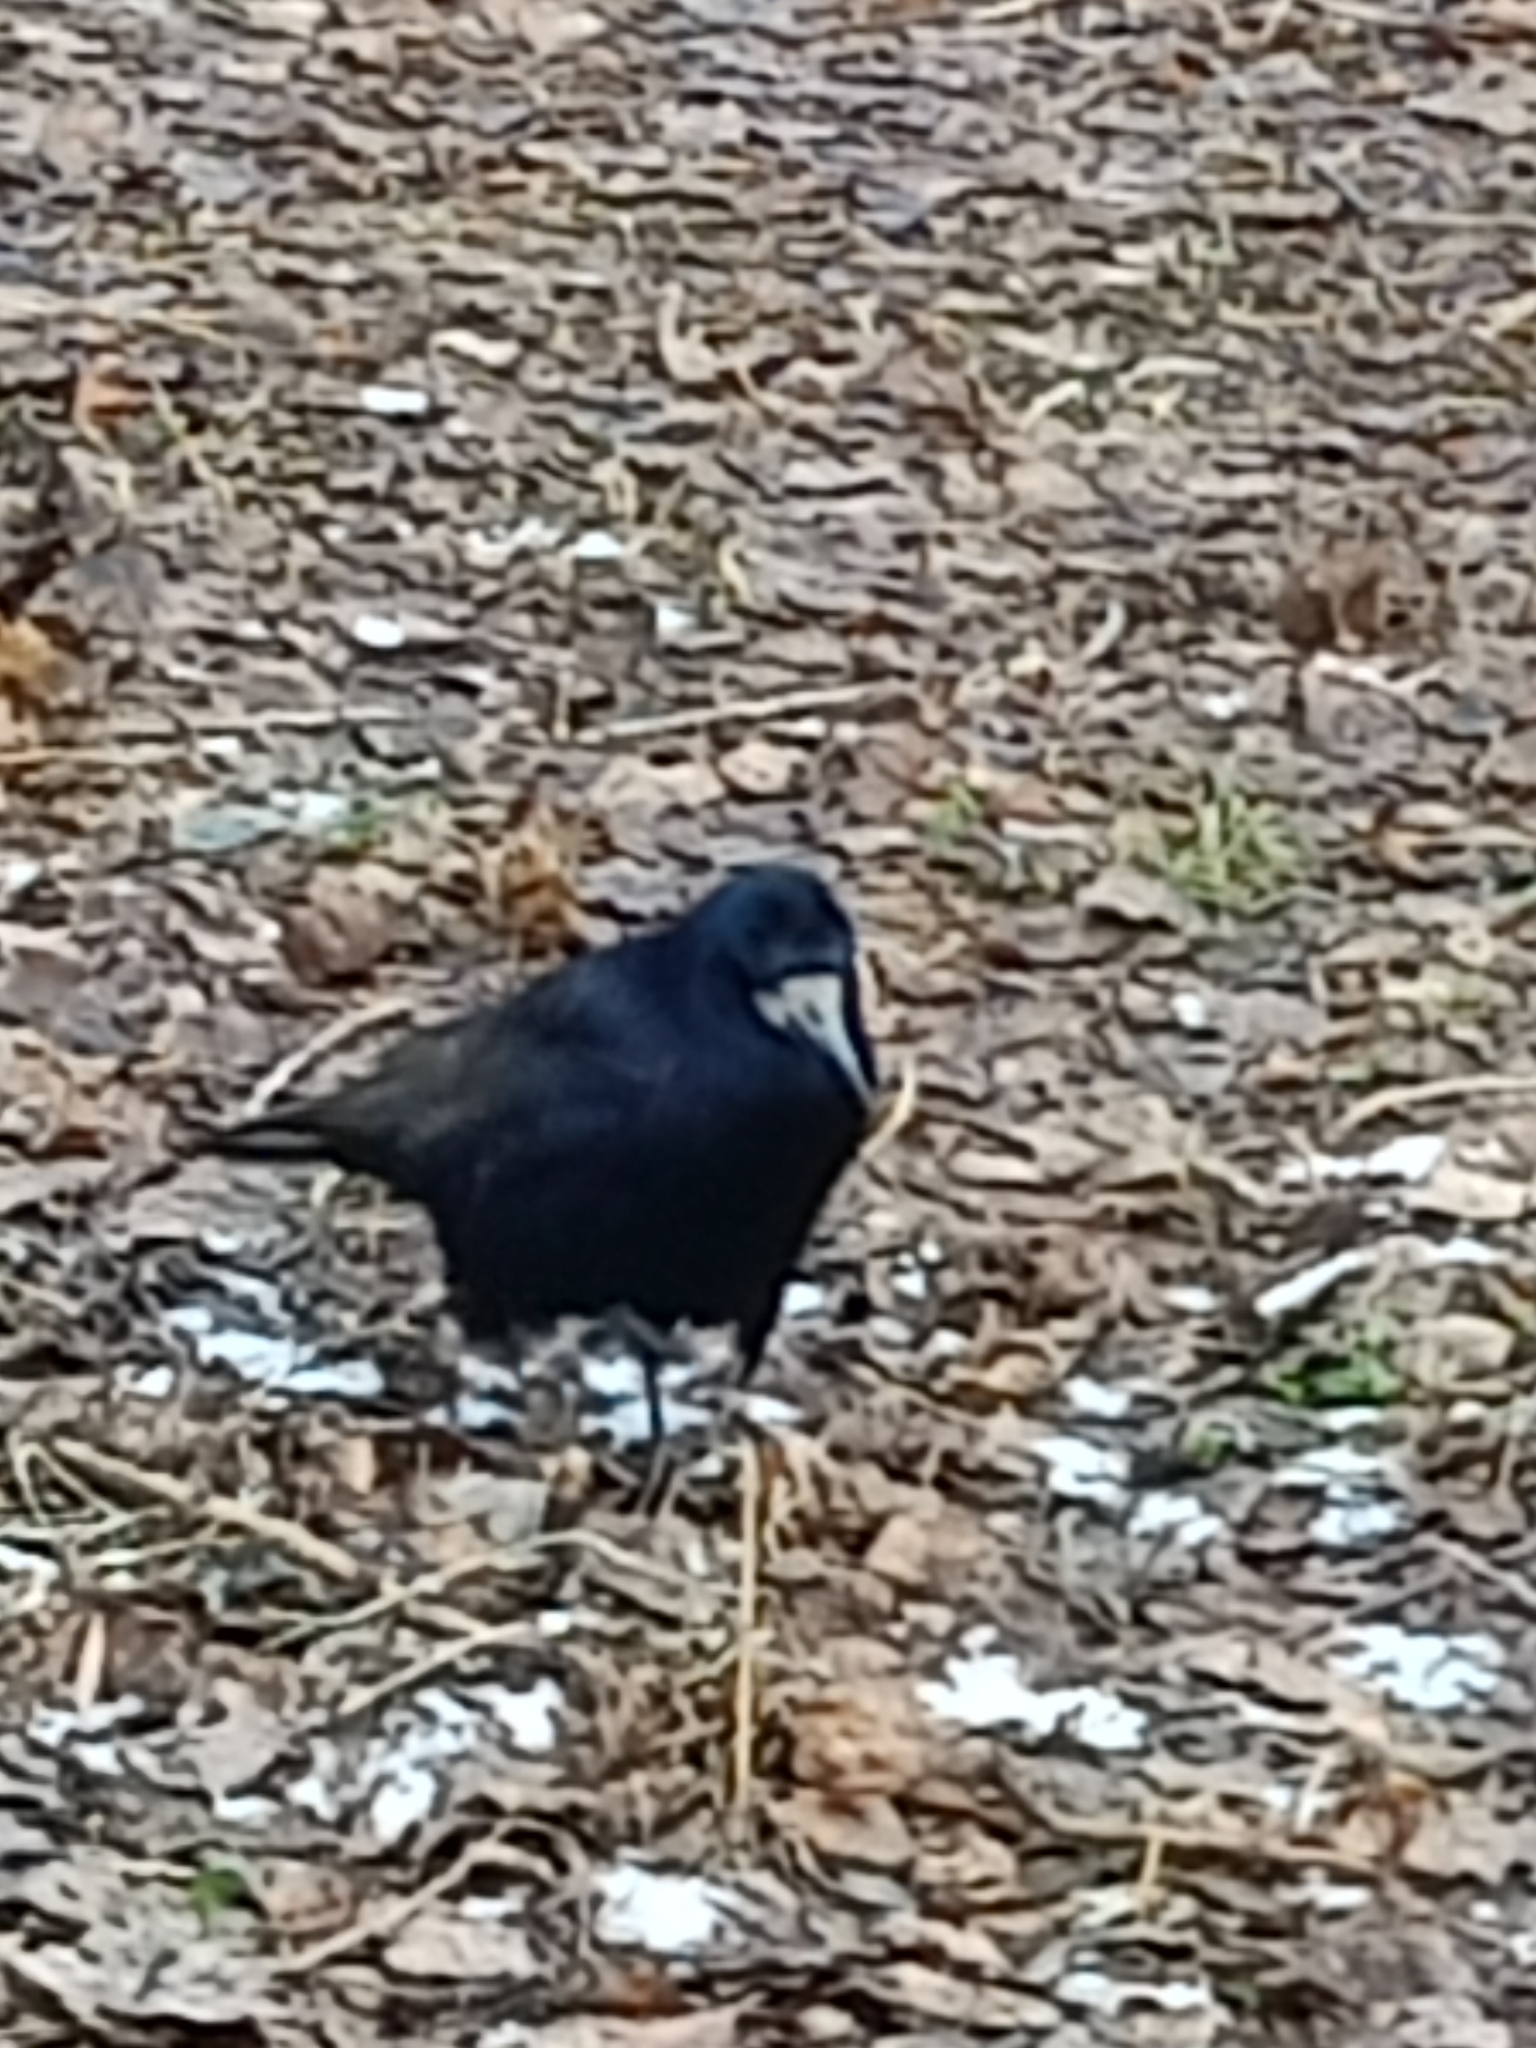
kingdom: Animalia
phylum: Chordata
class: Aves
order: Passeriformes
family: Corvidae
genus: Corvus
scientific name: Corvus frugilegus
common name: Rook
